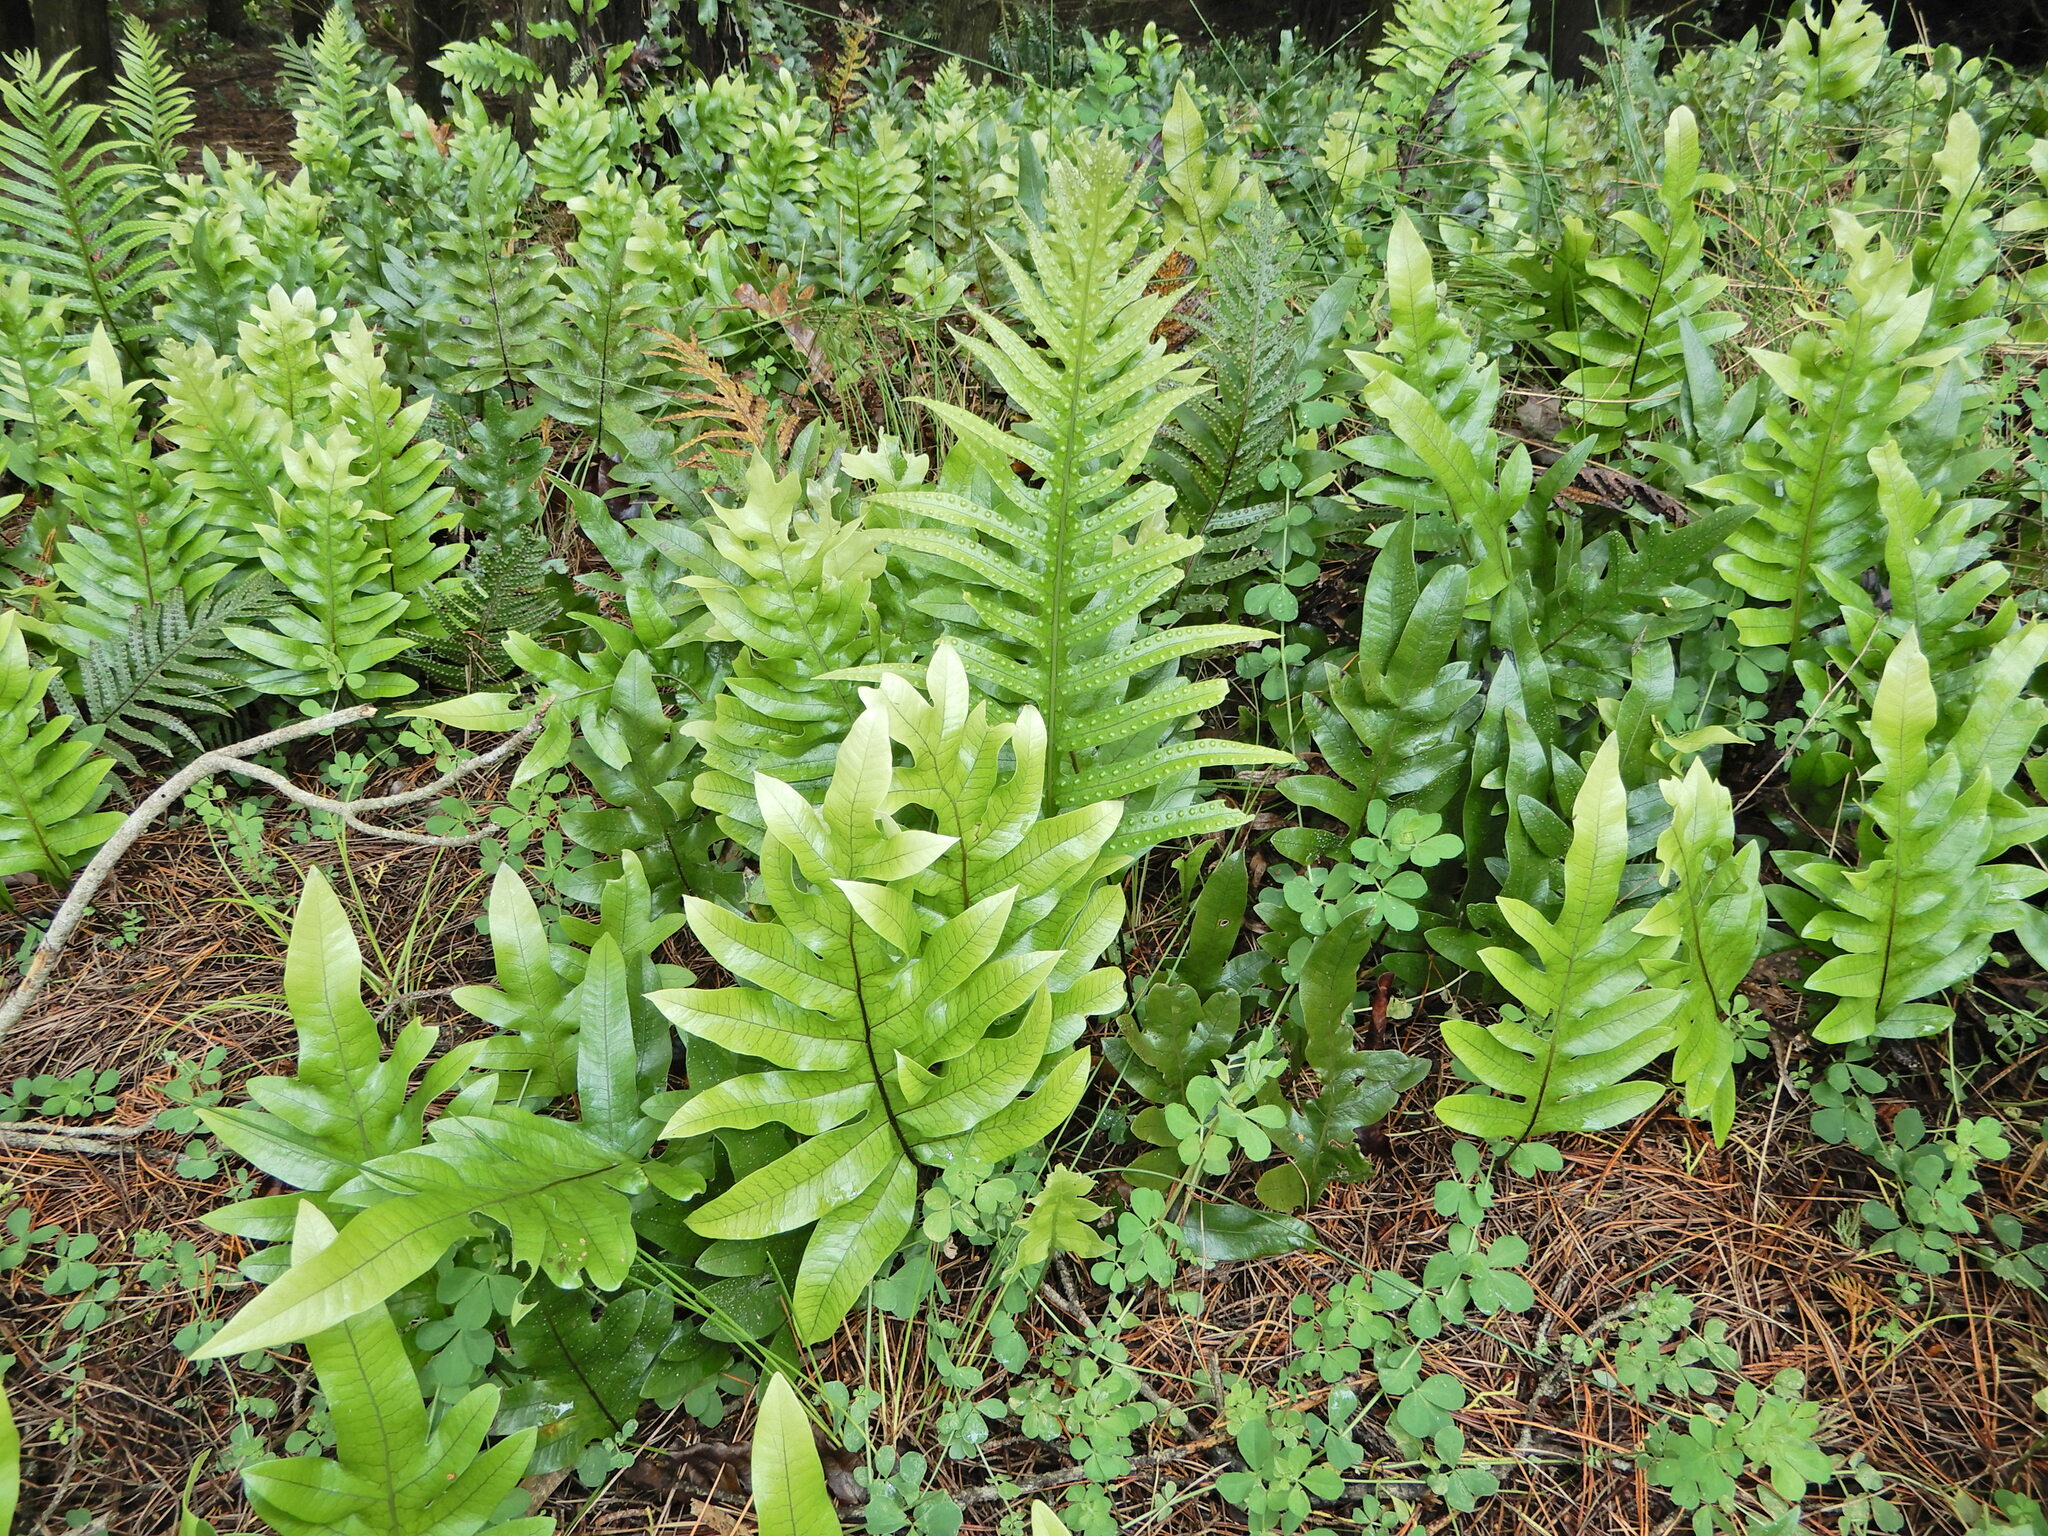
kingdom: Plantae
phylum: Tracheophyta
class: Polypodiopsida
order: Polypodiales
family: Polypodiaceae
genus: Lecanopteris
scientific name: Lecanopteris pustulata
